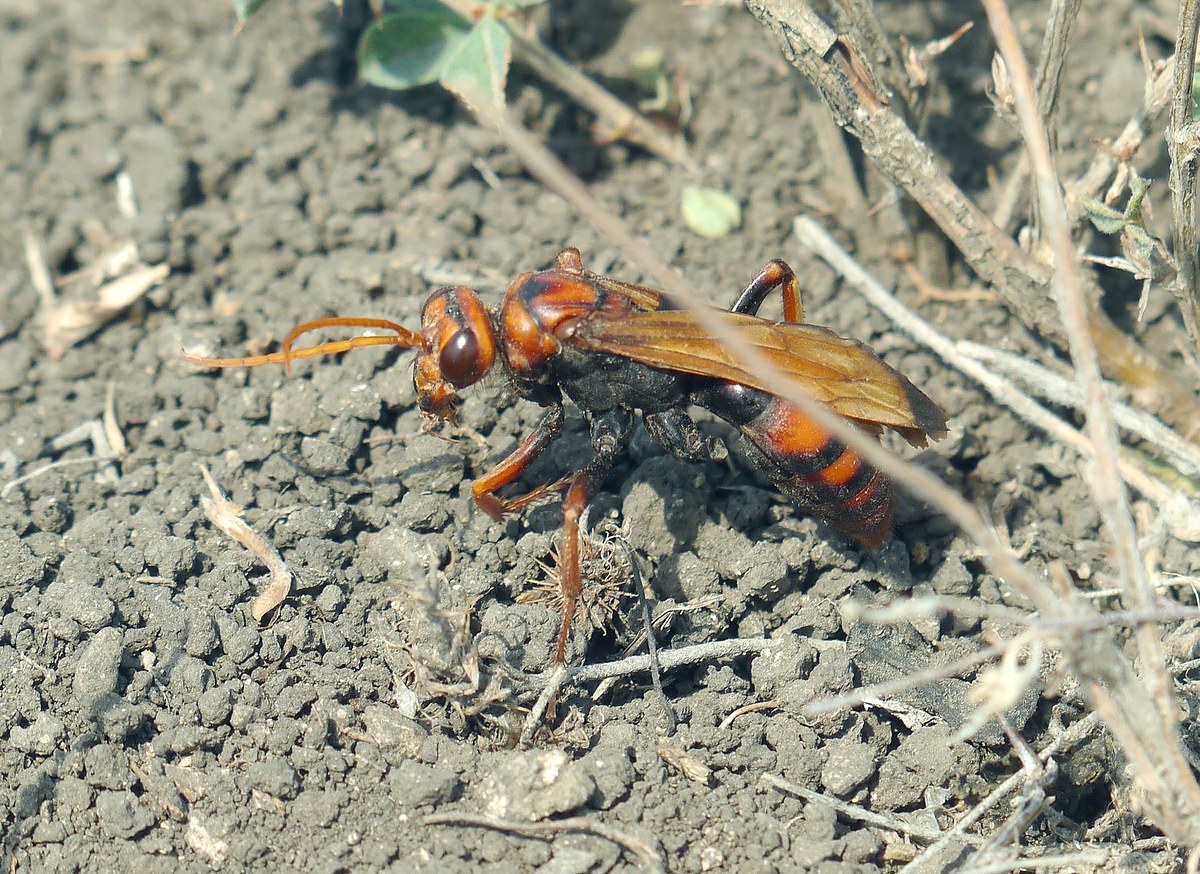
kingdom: Animalia
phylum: Arthropoda
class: Insecta
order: Hymenoptera
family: Pompilidae
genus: Cryptocheilus
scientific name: Cryptocheilus rubellus
